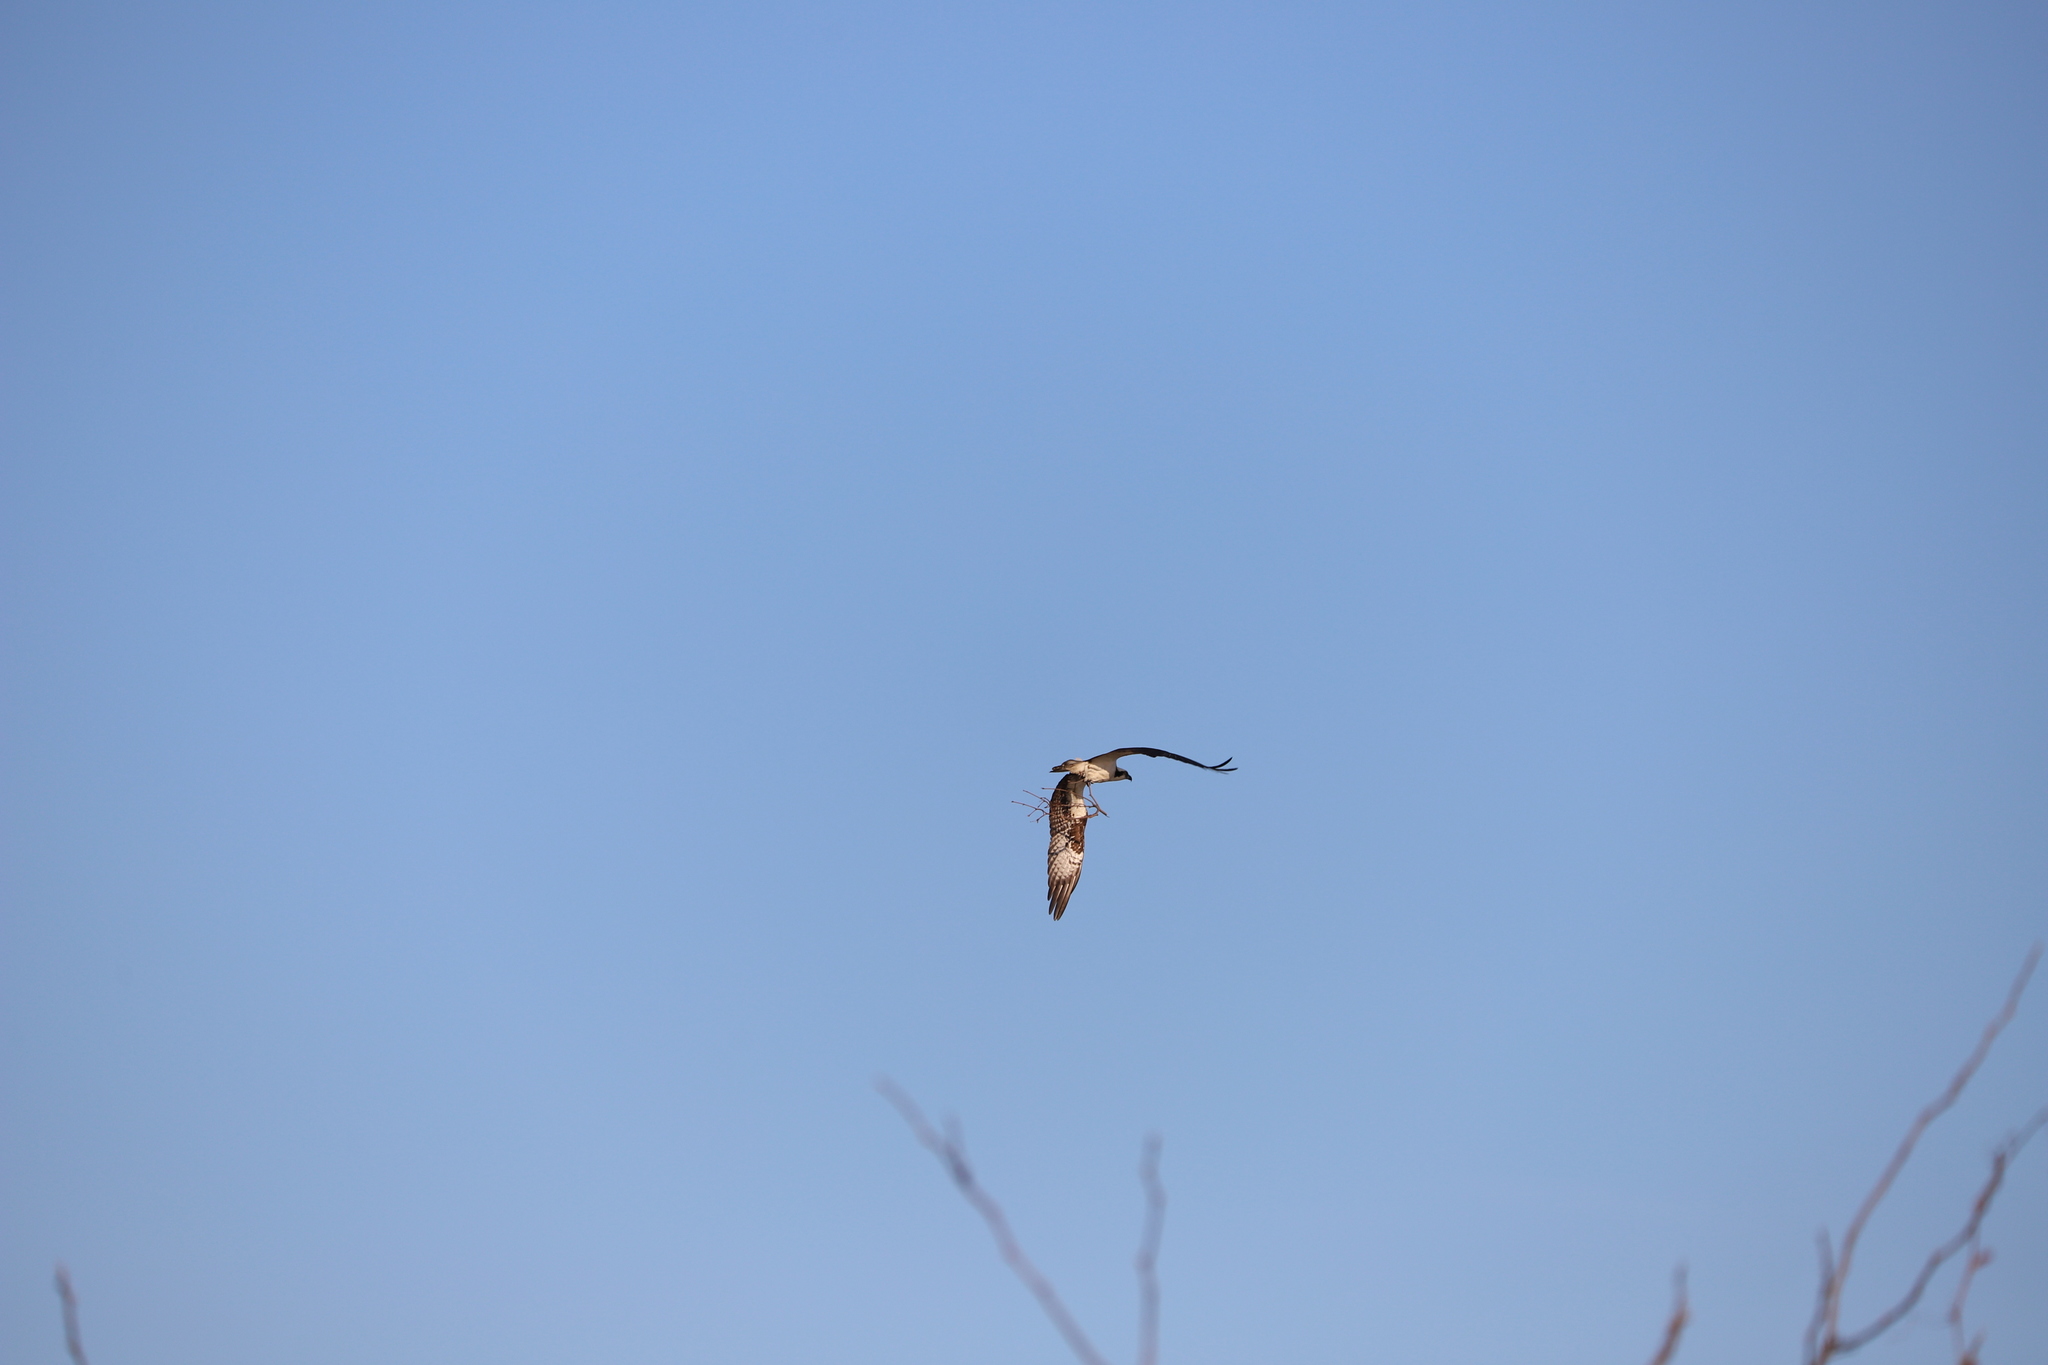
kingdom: Animalia
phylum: Chordata
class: Aves
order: Accipitriformes
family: Pandionidae
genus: Pandion
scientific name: Pandion haliaetus
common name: Osprey
